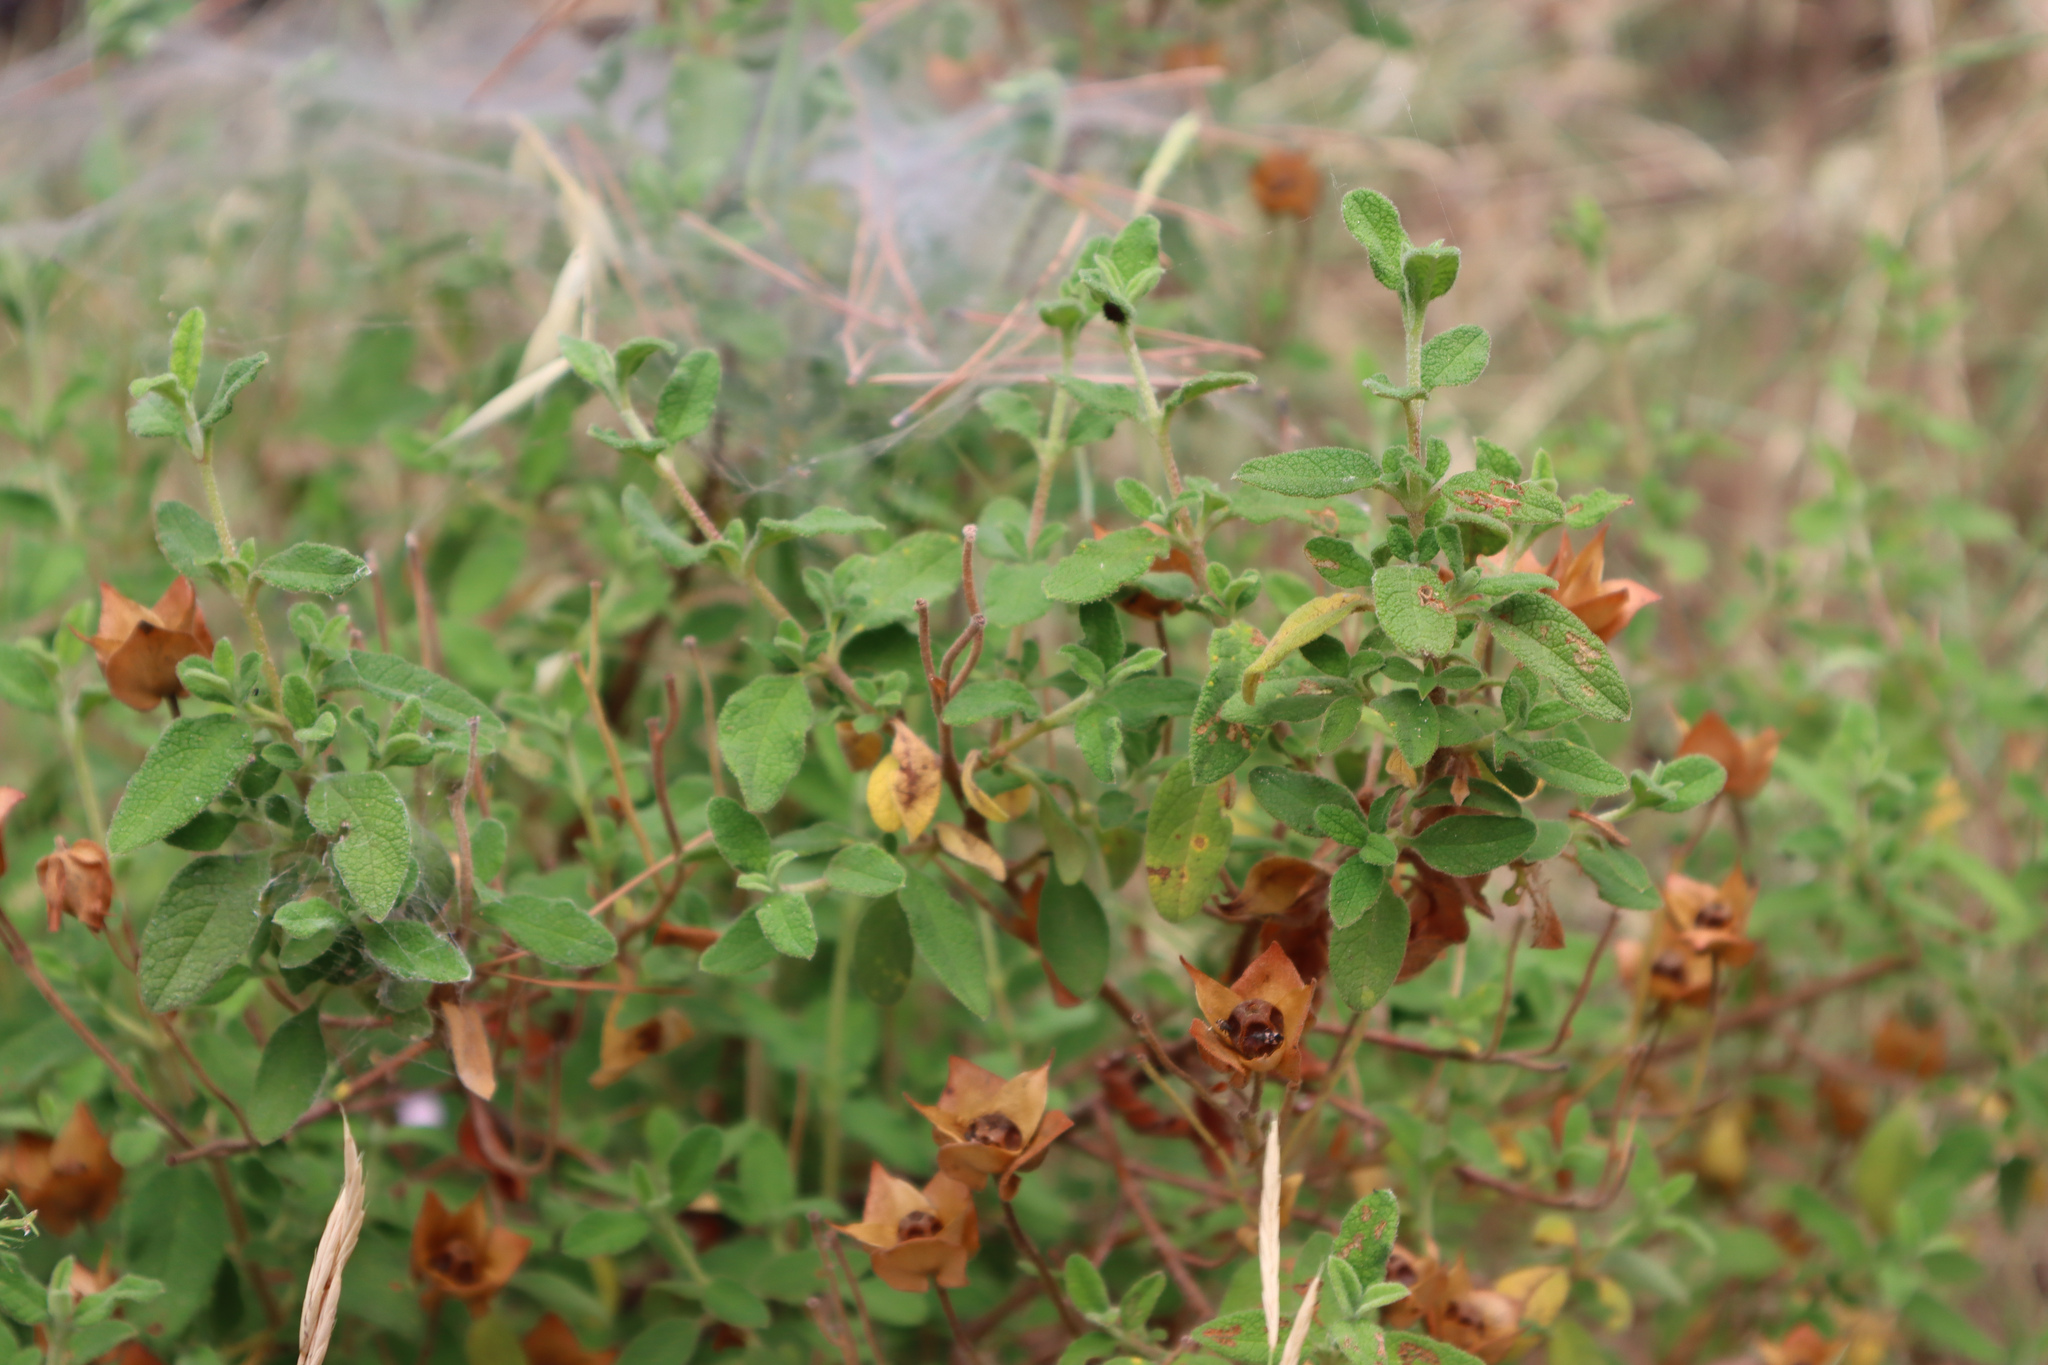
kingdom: Plantae
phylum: Tracheophyta
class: Magnoliopsida
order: Malvales
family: Cistaceae
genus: Cistus
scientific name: Cistus salviifolius
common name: Salvia cistus
